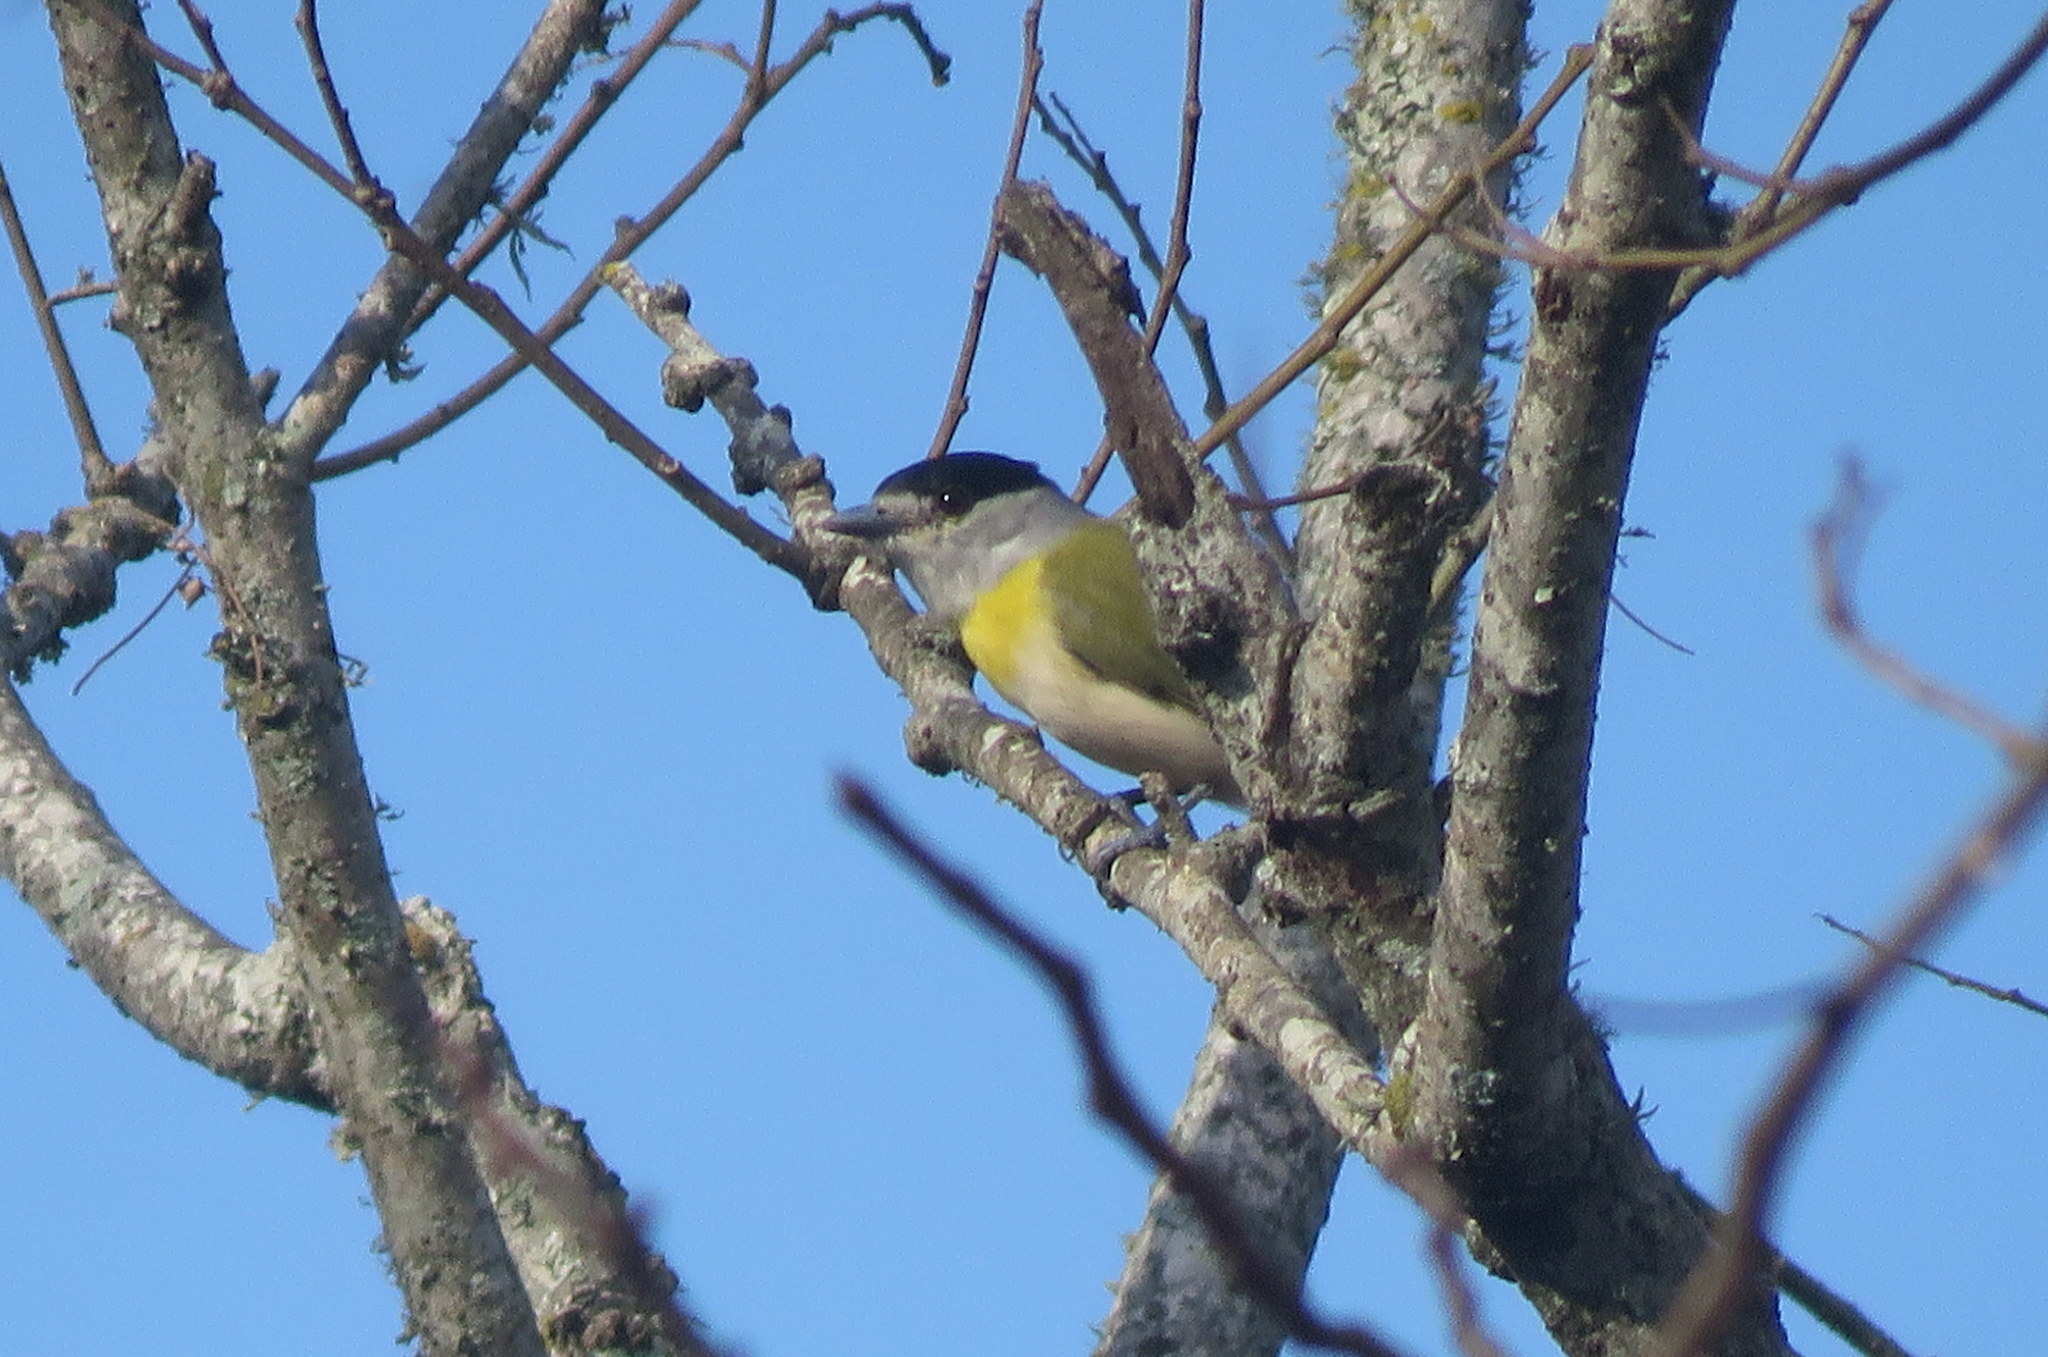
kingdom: Animalia
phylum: Chordata
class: Aves
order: Passeriformes
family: Cotingidae
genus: Pachyramphus
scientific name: Pachyramphus viridis
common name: Green-backed becard
